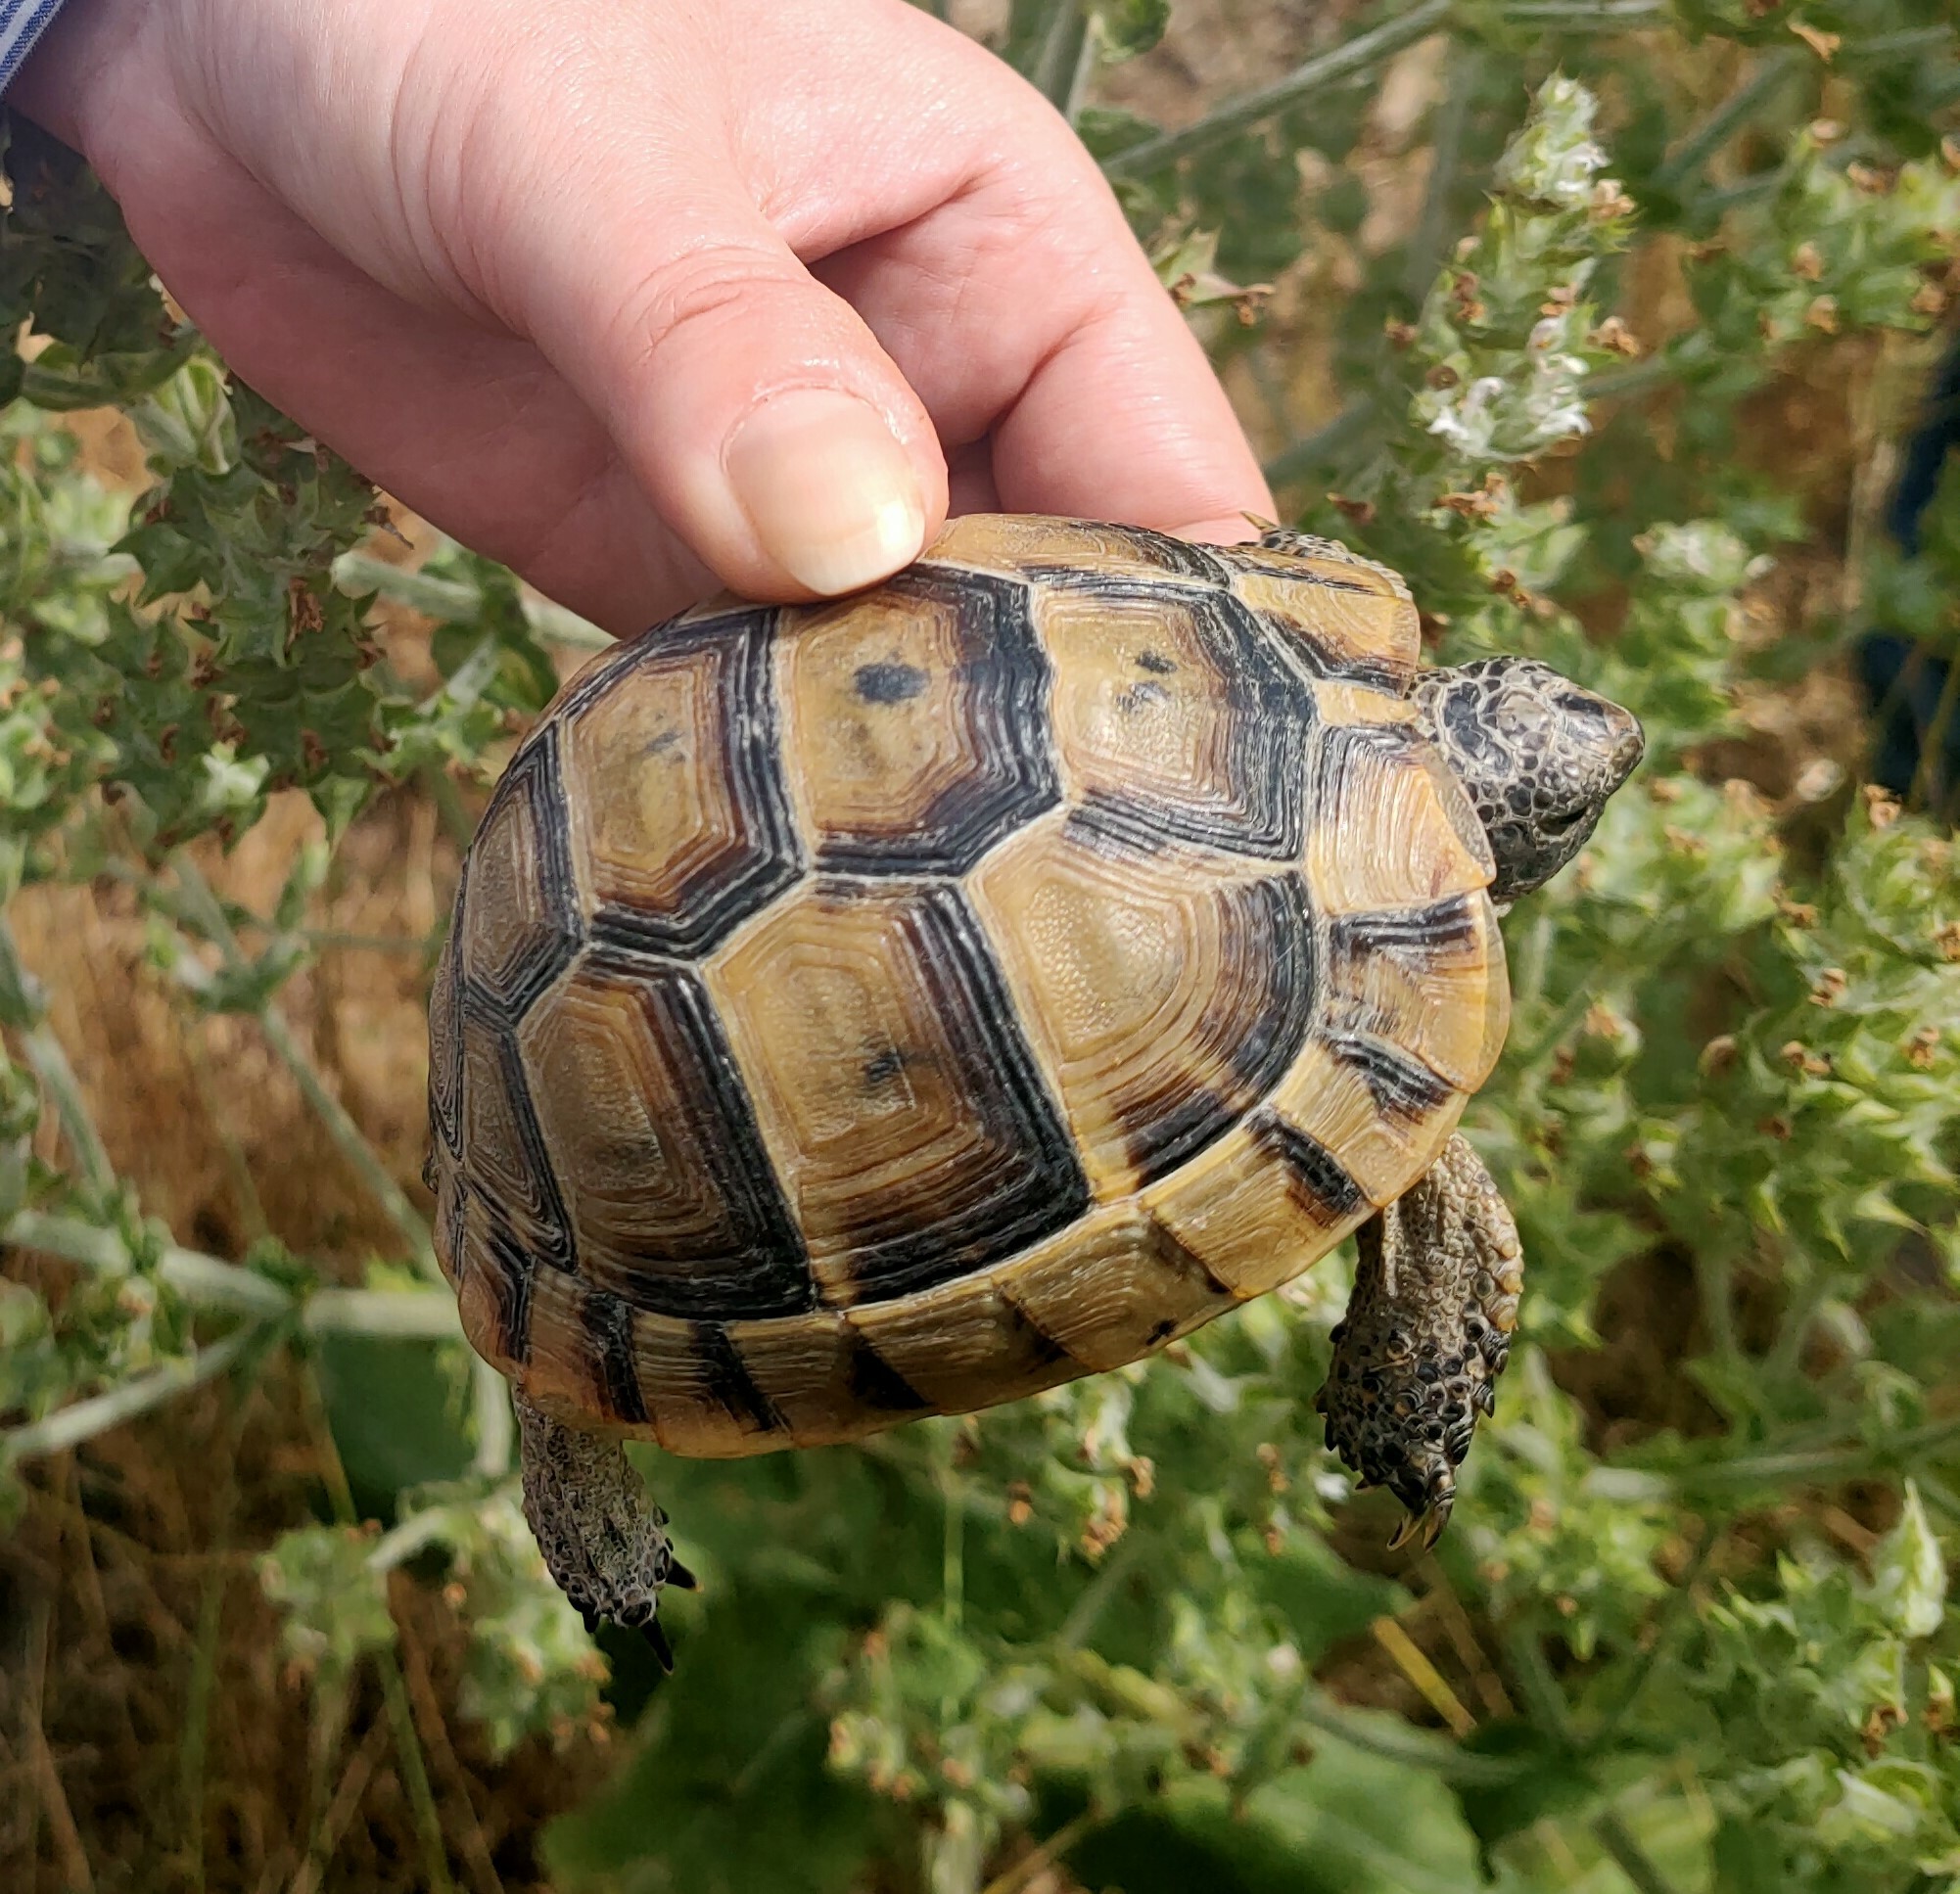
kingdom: Animalia
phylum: Chordata
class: Testudines
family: Testudinidae
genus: Testudo
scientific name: Testudo graeca
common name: Common tortoise
